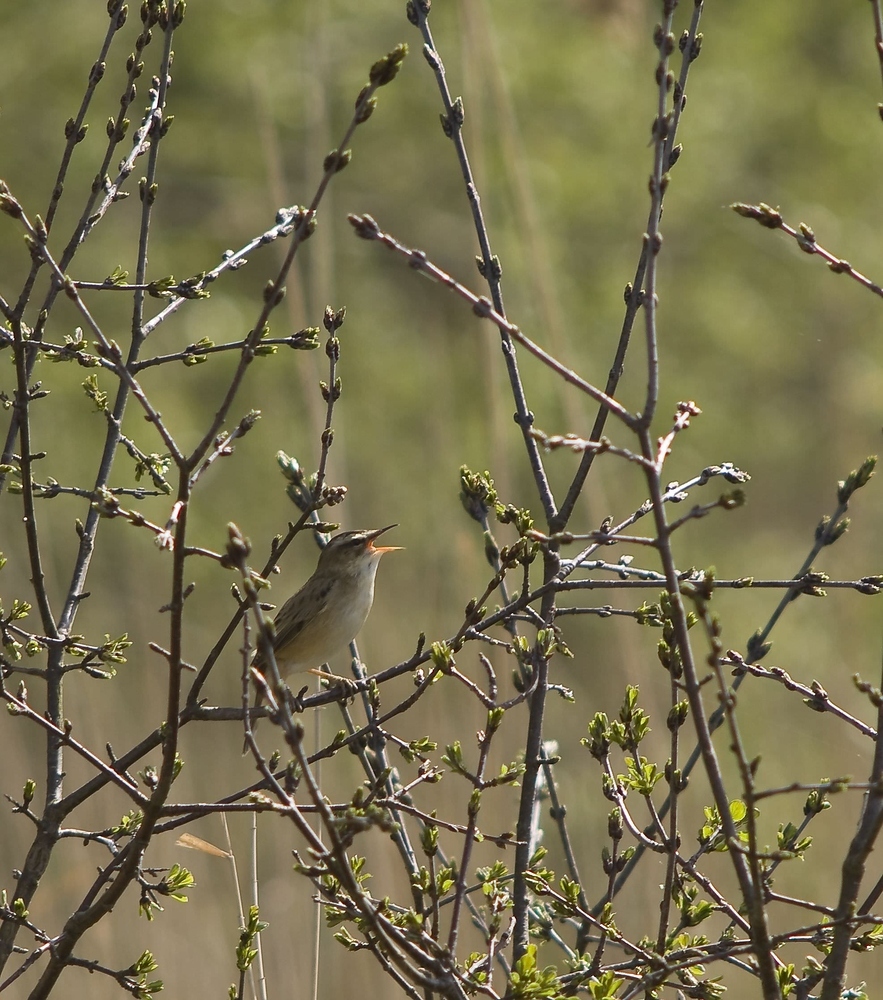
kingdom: Animalia
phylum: Chordata
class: Aves
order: Passeriformes
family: Acrocephalidae
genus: Acrocephalus
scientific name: Acrocephalus schoenobaenus
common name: Sedge warbler
